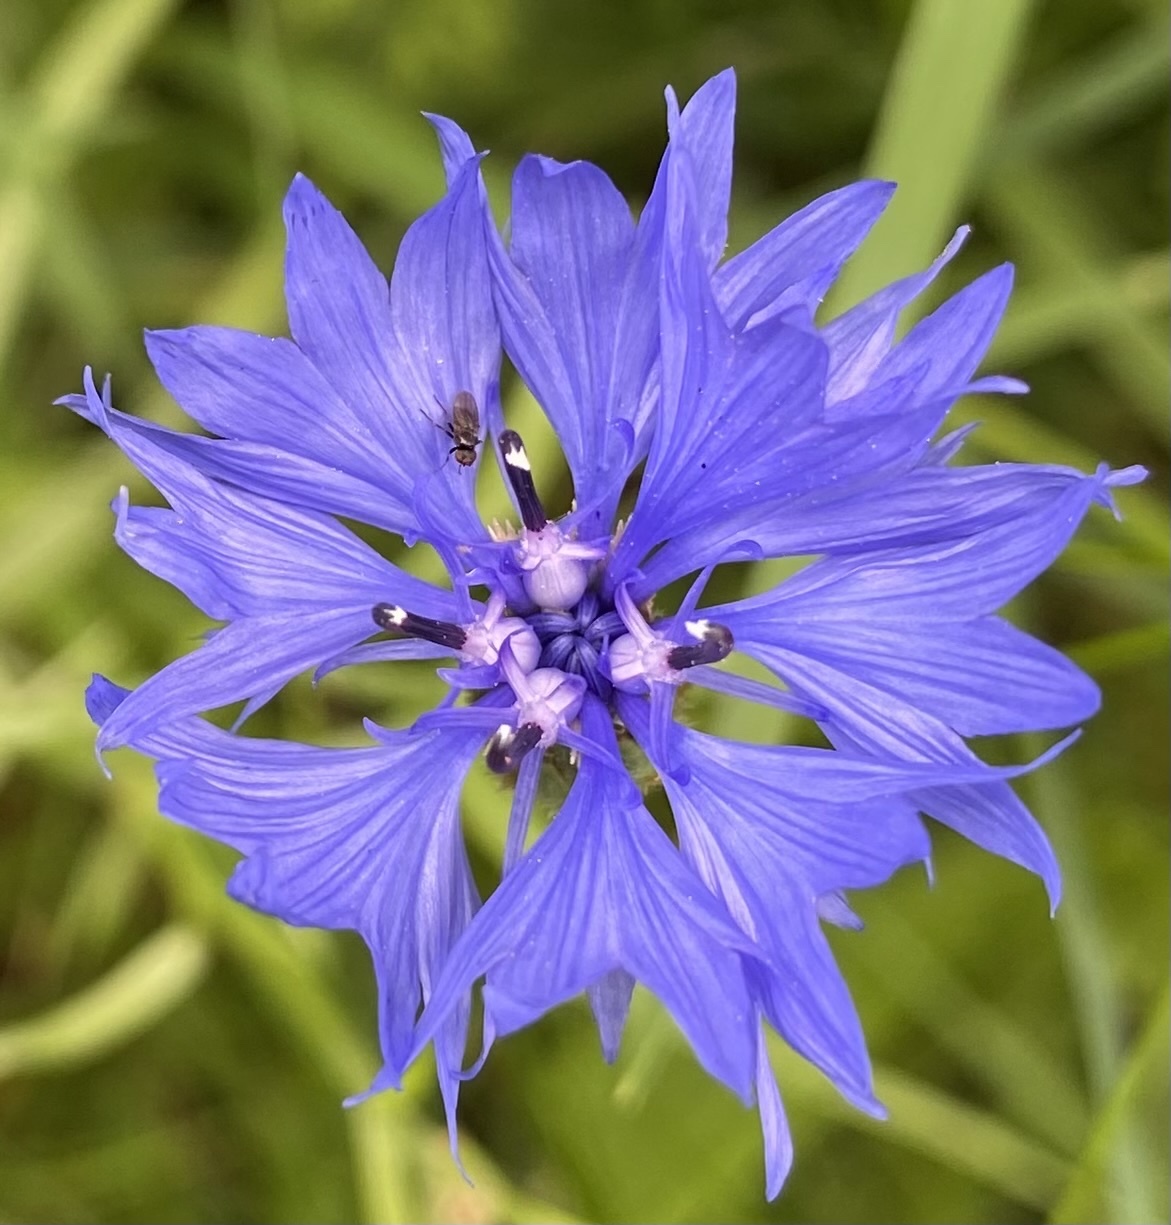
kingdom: Plantae
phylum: Tracheophyta
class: Magnoliopsida
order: Asterales
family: Asteraceae
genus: Centaurea
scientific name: Centaurea cyanus
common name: Cornflower
